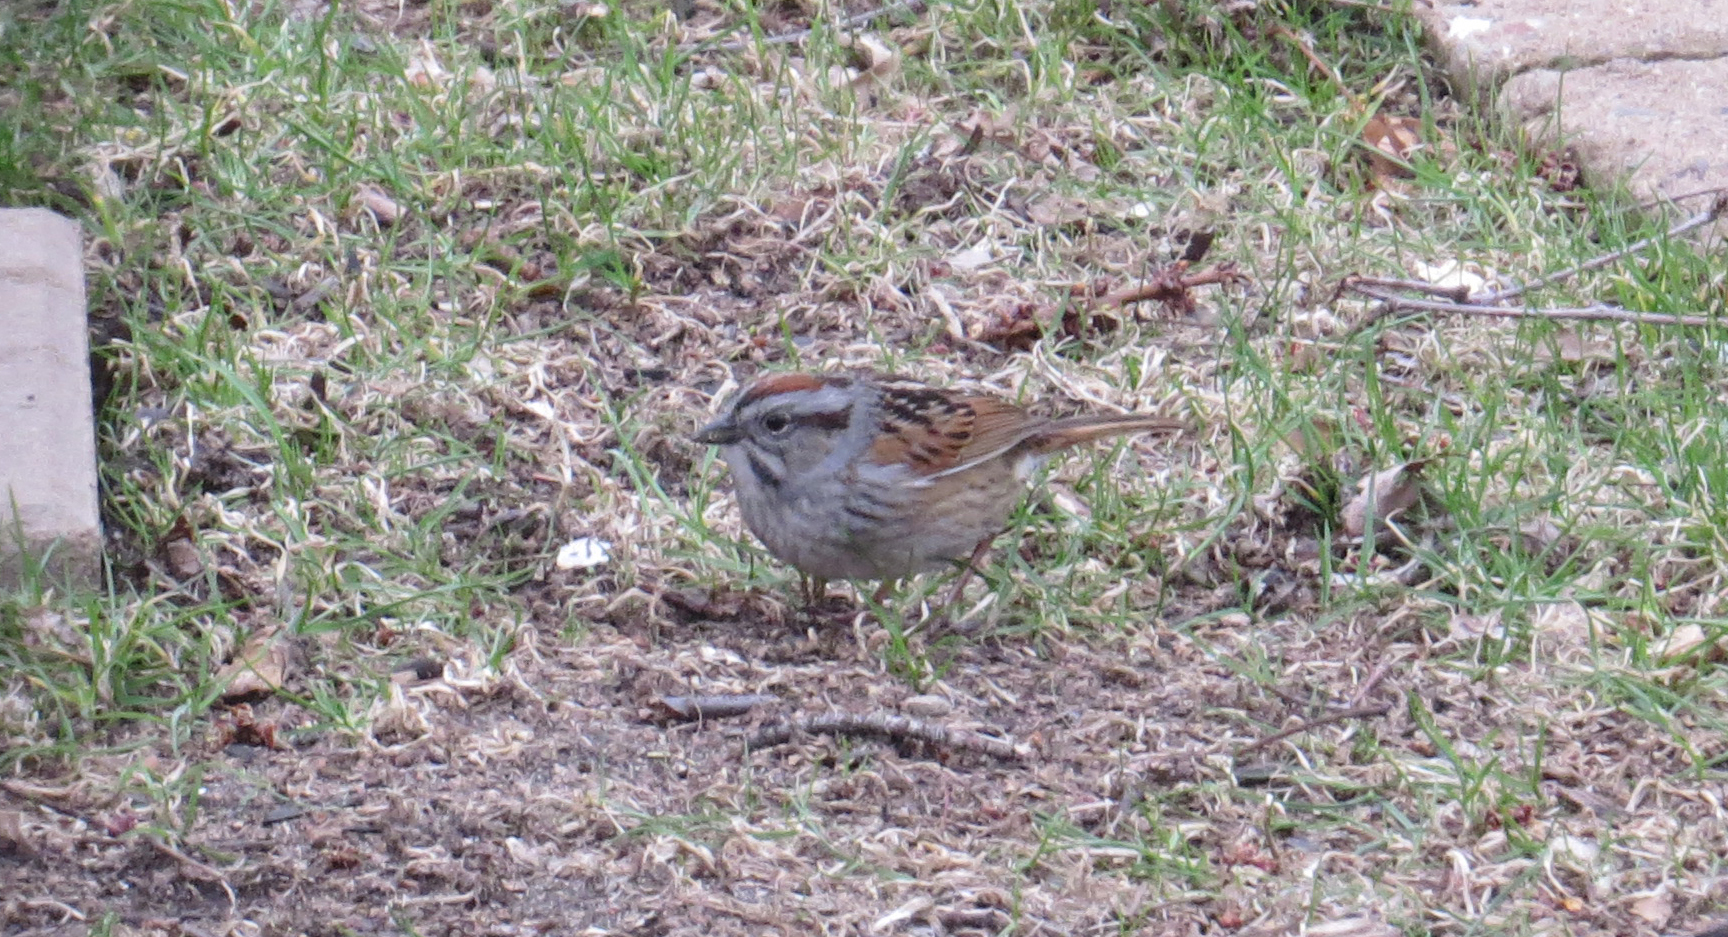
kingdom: Animalia
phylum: Chordata
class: Aves
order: Passeriformes
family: Passerellidae
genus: Melospiza
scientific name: Melospiza georgiana
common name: Swamp sparrow
